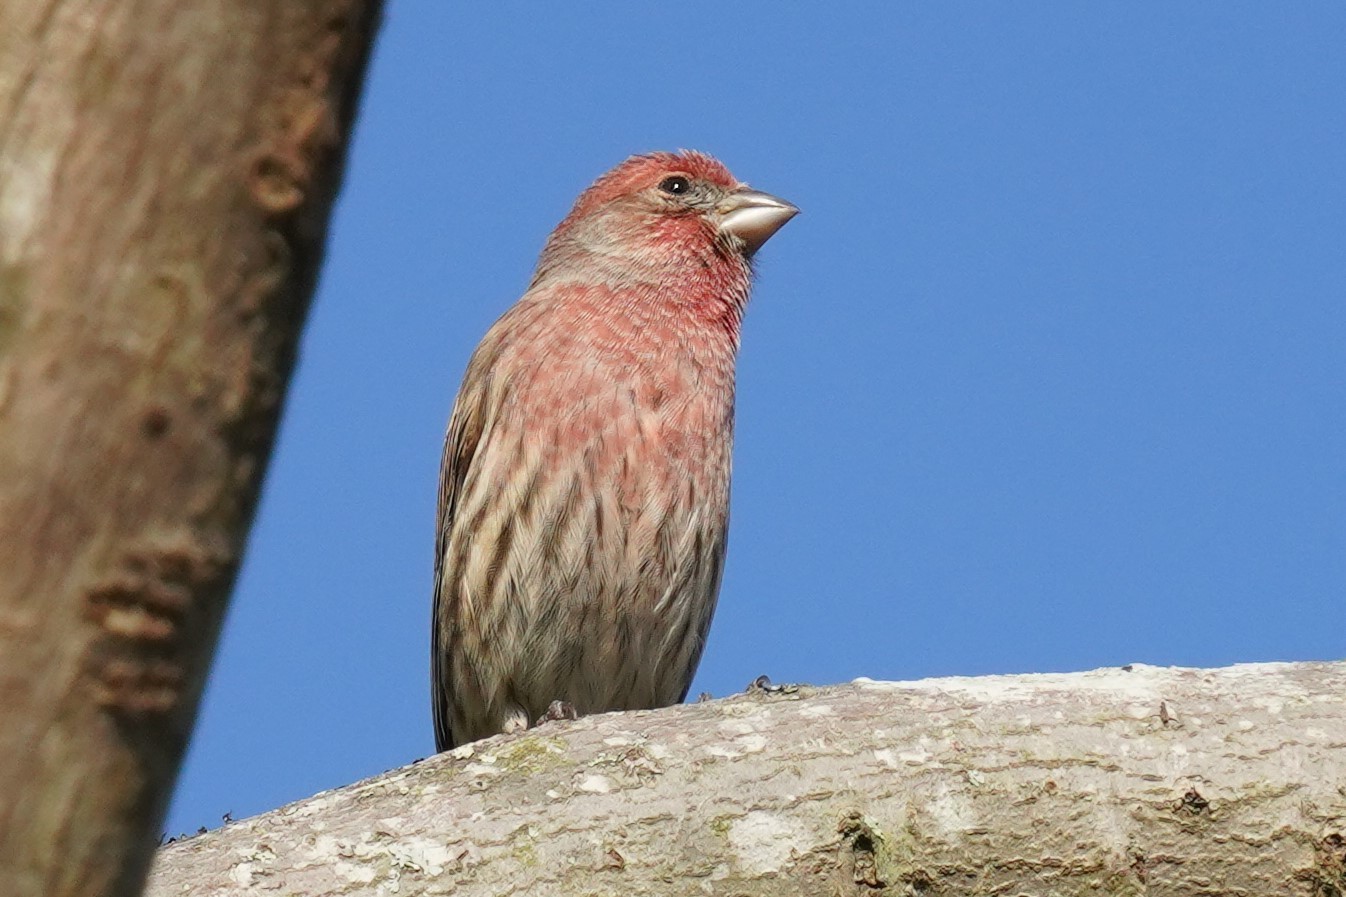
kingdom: Animalia
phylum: Chordata
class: Aves
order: Passeriformes
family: Fringillidae
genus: Haemorhous
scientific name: Haemorhous mexicanus
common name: House finch
